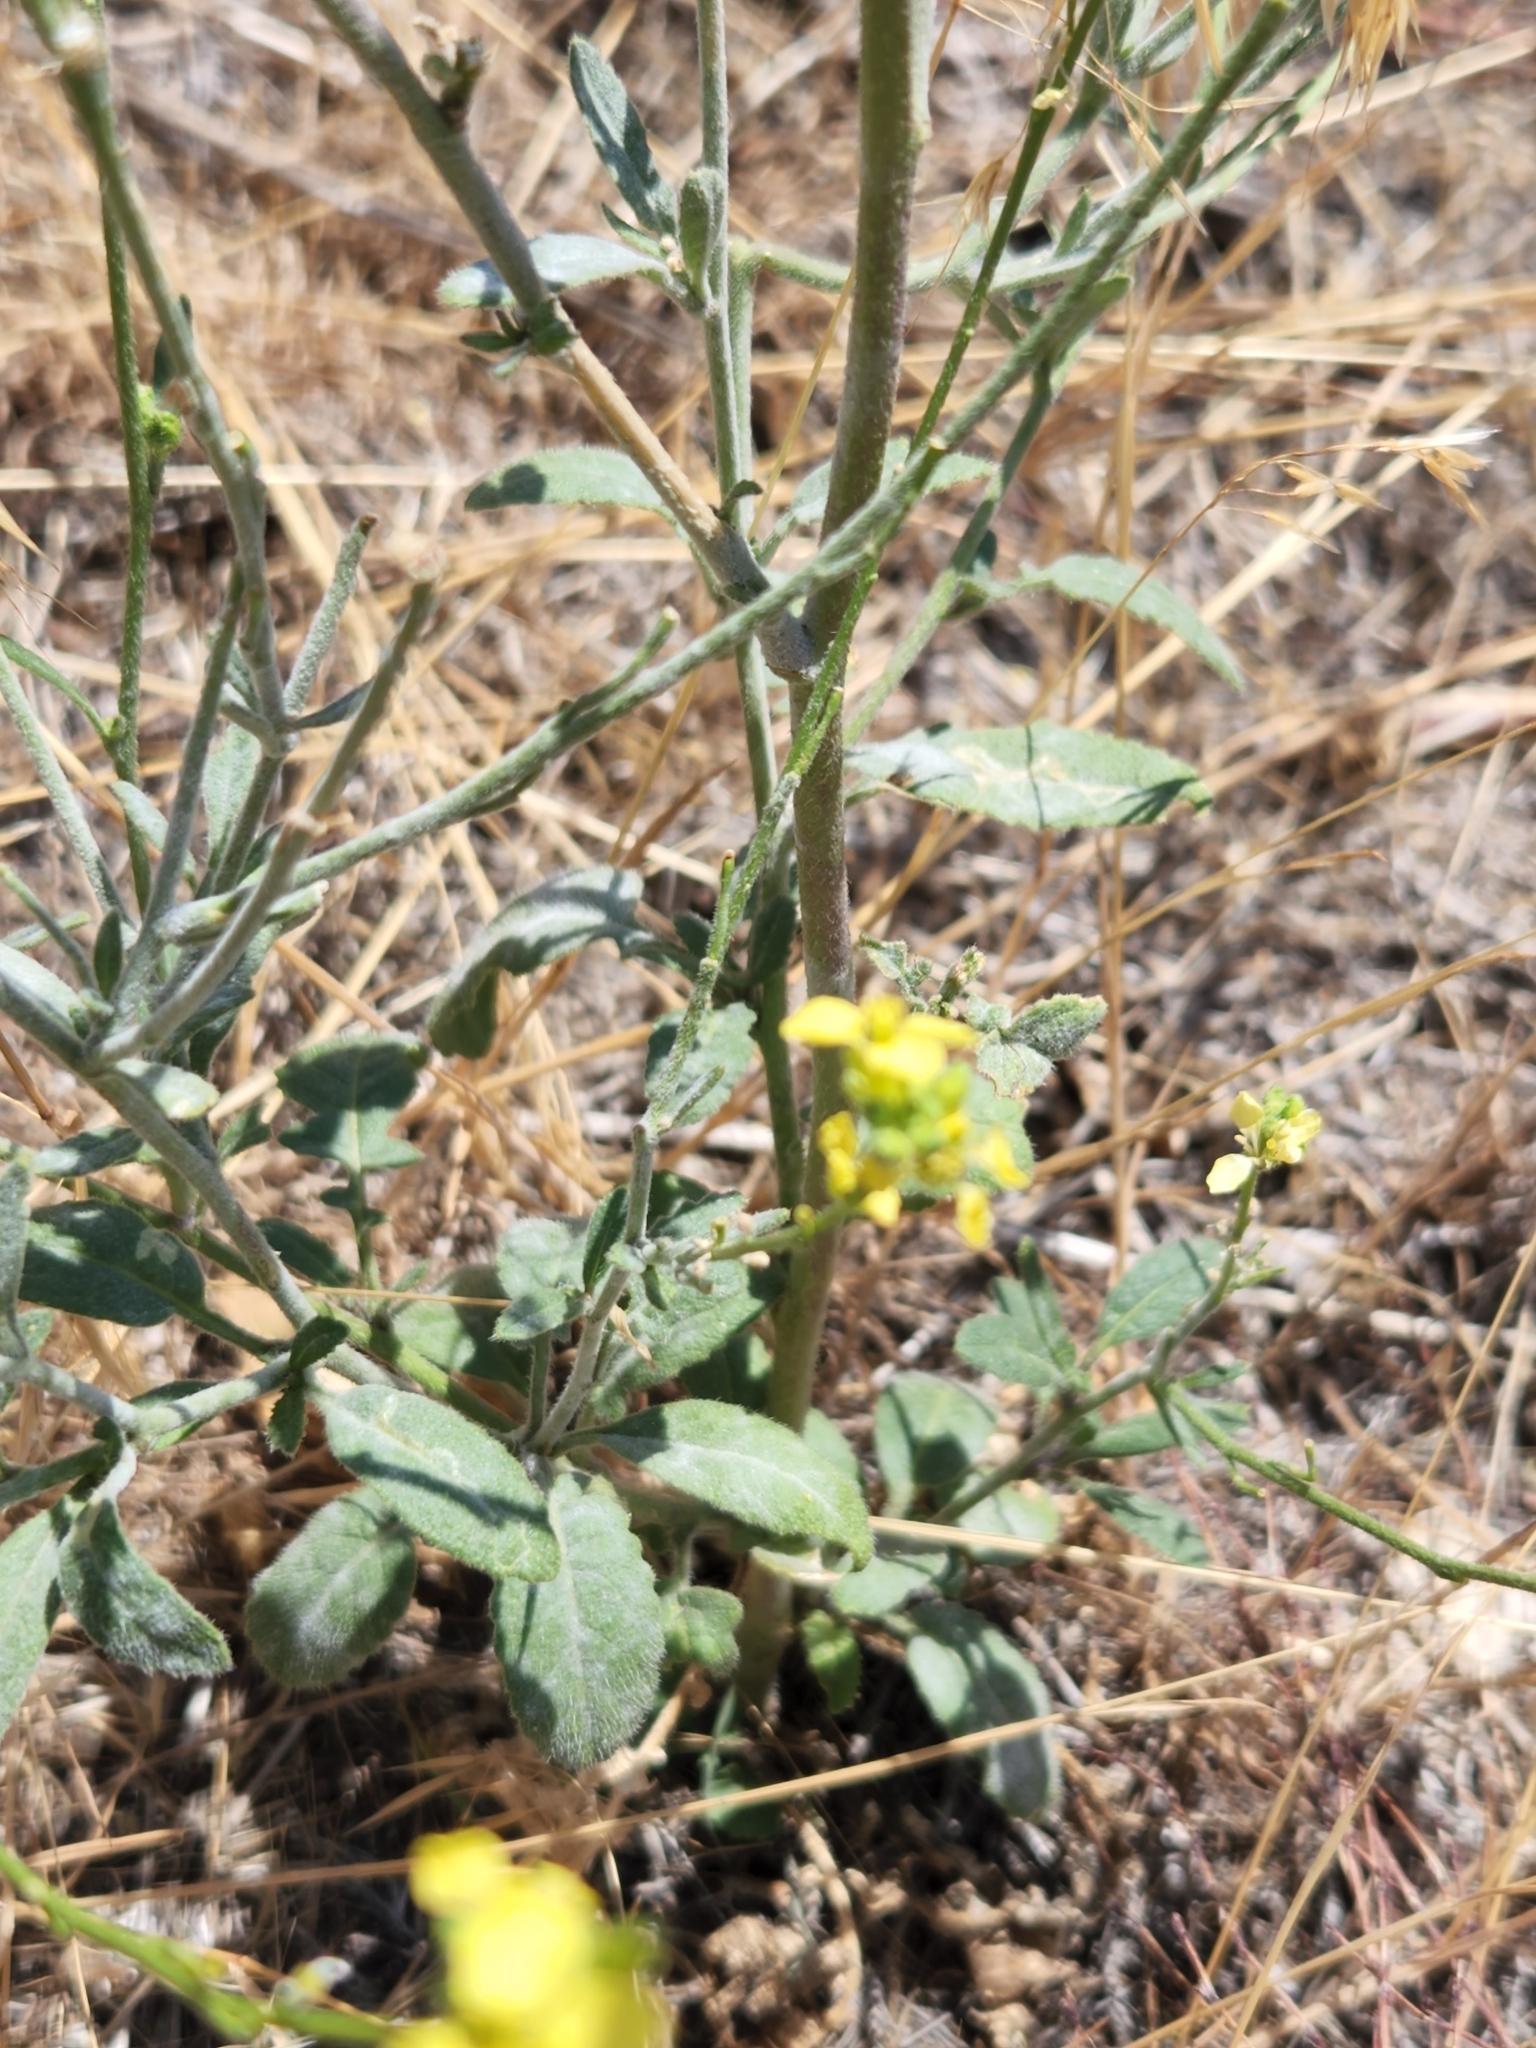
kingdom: Plantae
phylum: Tracheophyta
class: Magnoliopsida
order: Brassicales
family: Brassicaceae
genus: Hirschfeldia
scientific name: Hirschfeldia incana
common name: Hoary mustard
